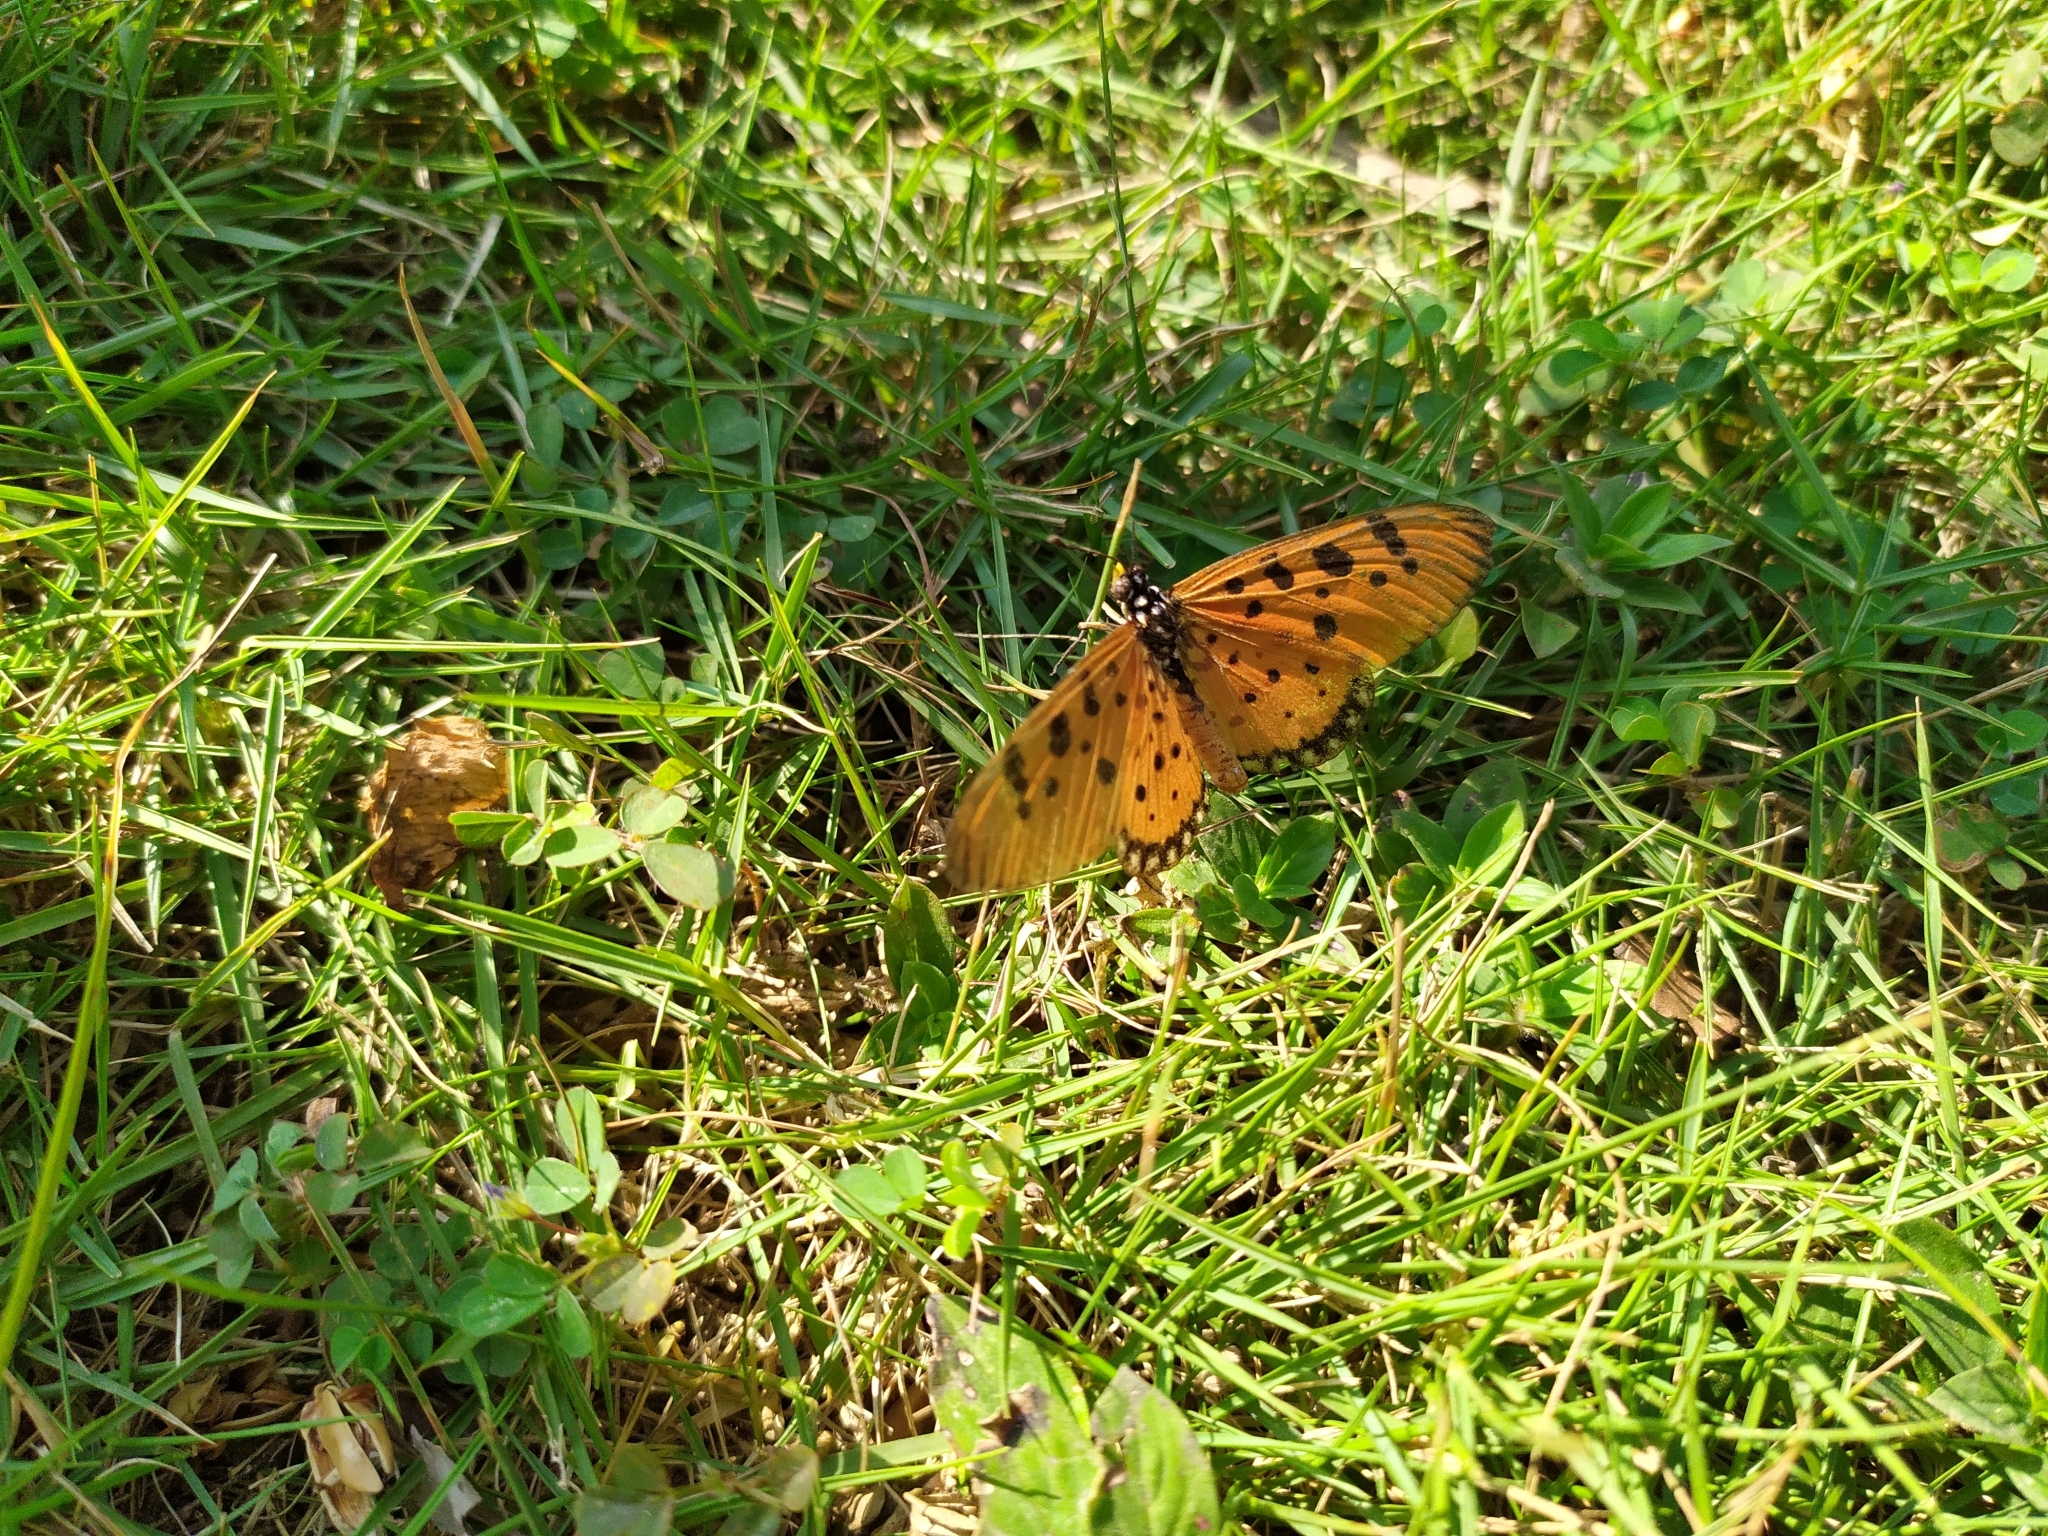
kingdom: Animalia
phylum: Arthropoda
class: Insecta
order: Lepidoptera
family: Nymphalidae
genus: Acraea
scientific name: Acraea terpsicore
